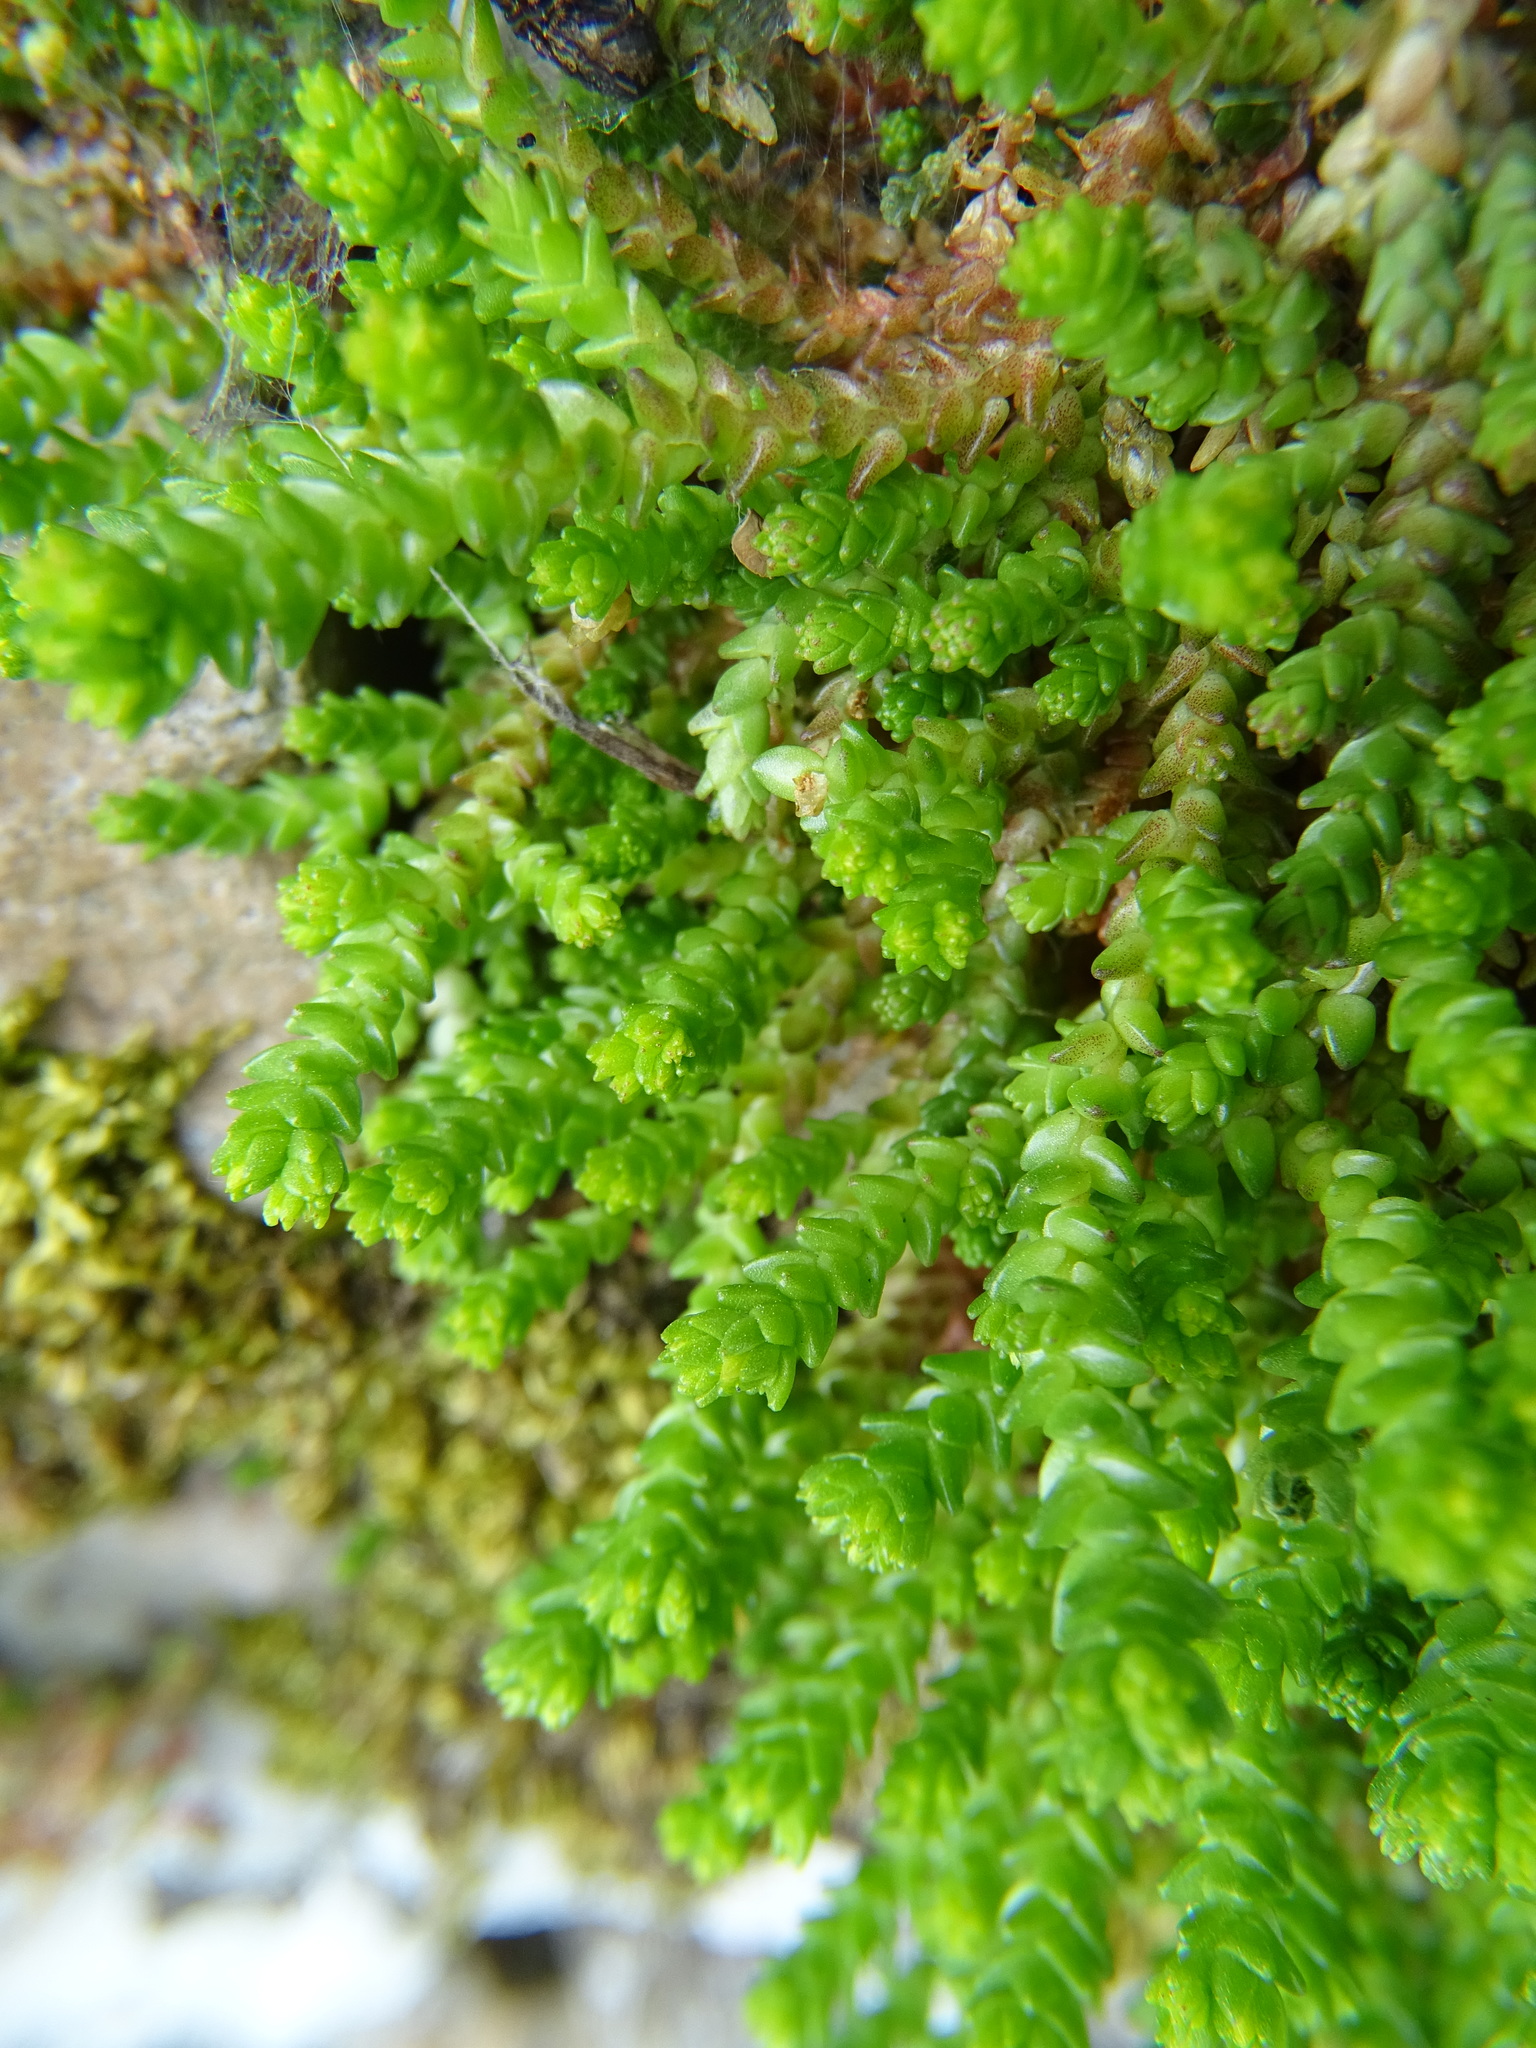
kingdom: Plantae
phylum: Tracheophyta
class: Magnoliopsida
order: Saxifragales
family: Crassulaceae
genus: Sedum
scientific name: Sedum acre
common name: Biting stonecrop
